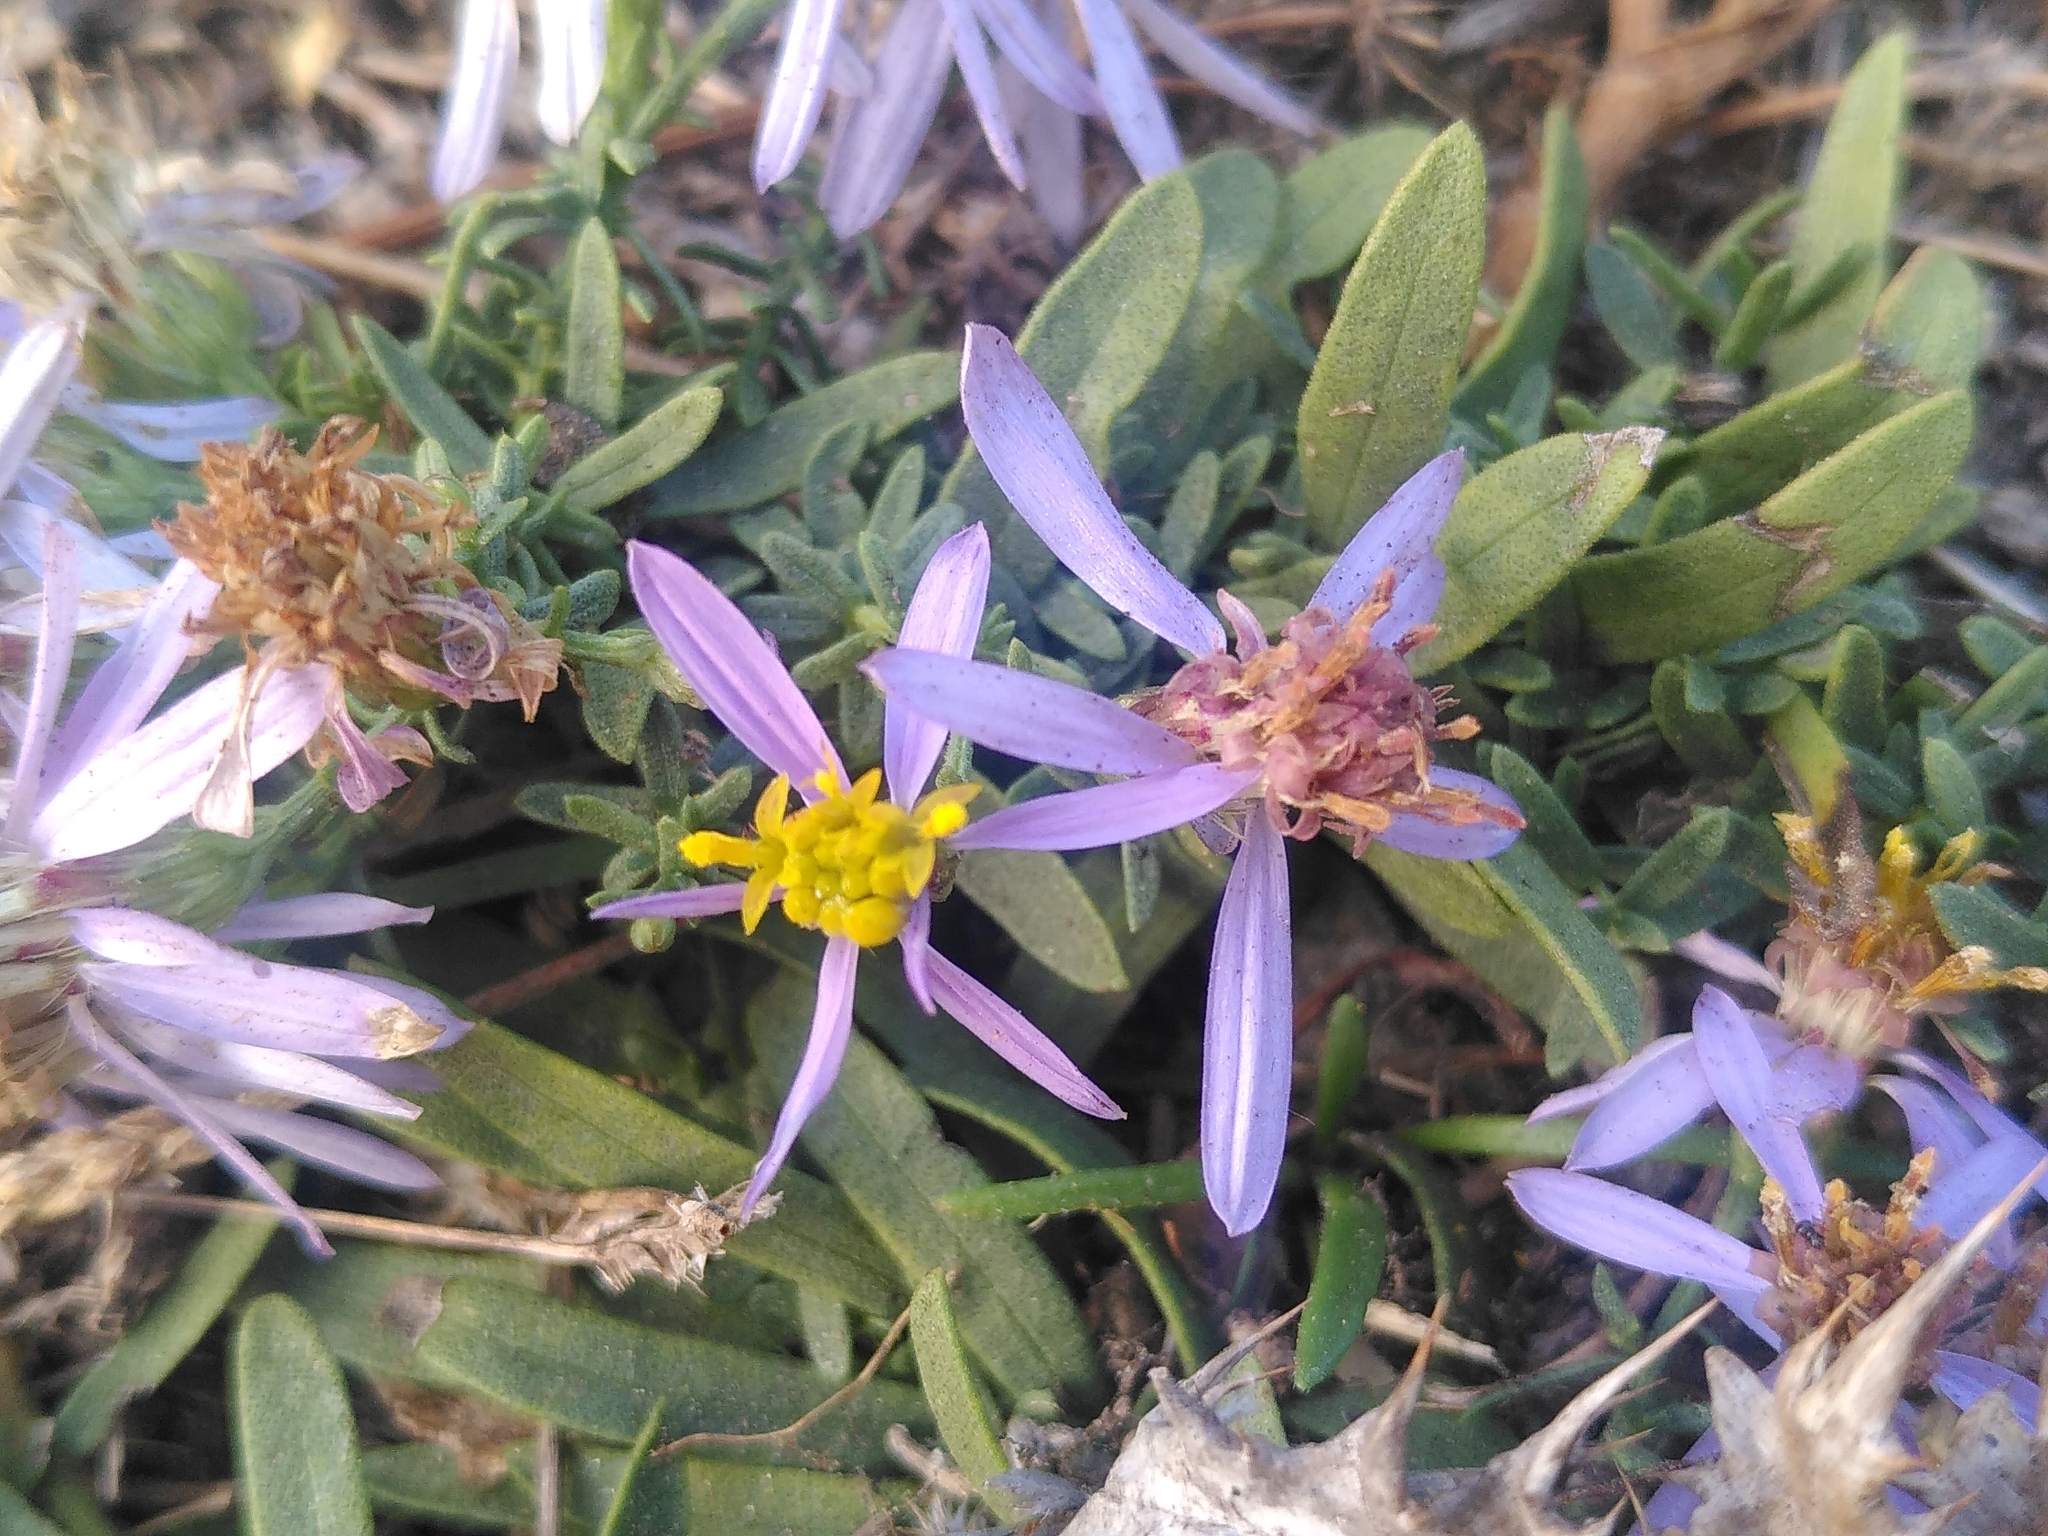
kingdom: Plantae
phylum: Tracheophyta
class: Magnoliopsida
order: Asterales
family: Asteraceae
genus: Galatella
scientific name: Galatella sedifolia
